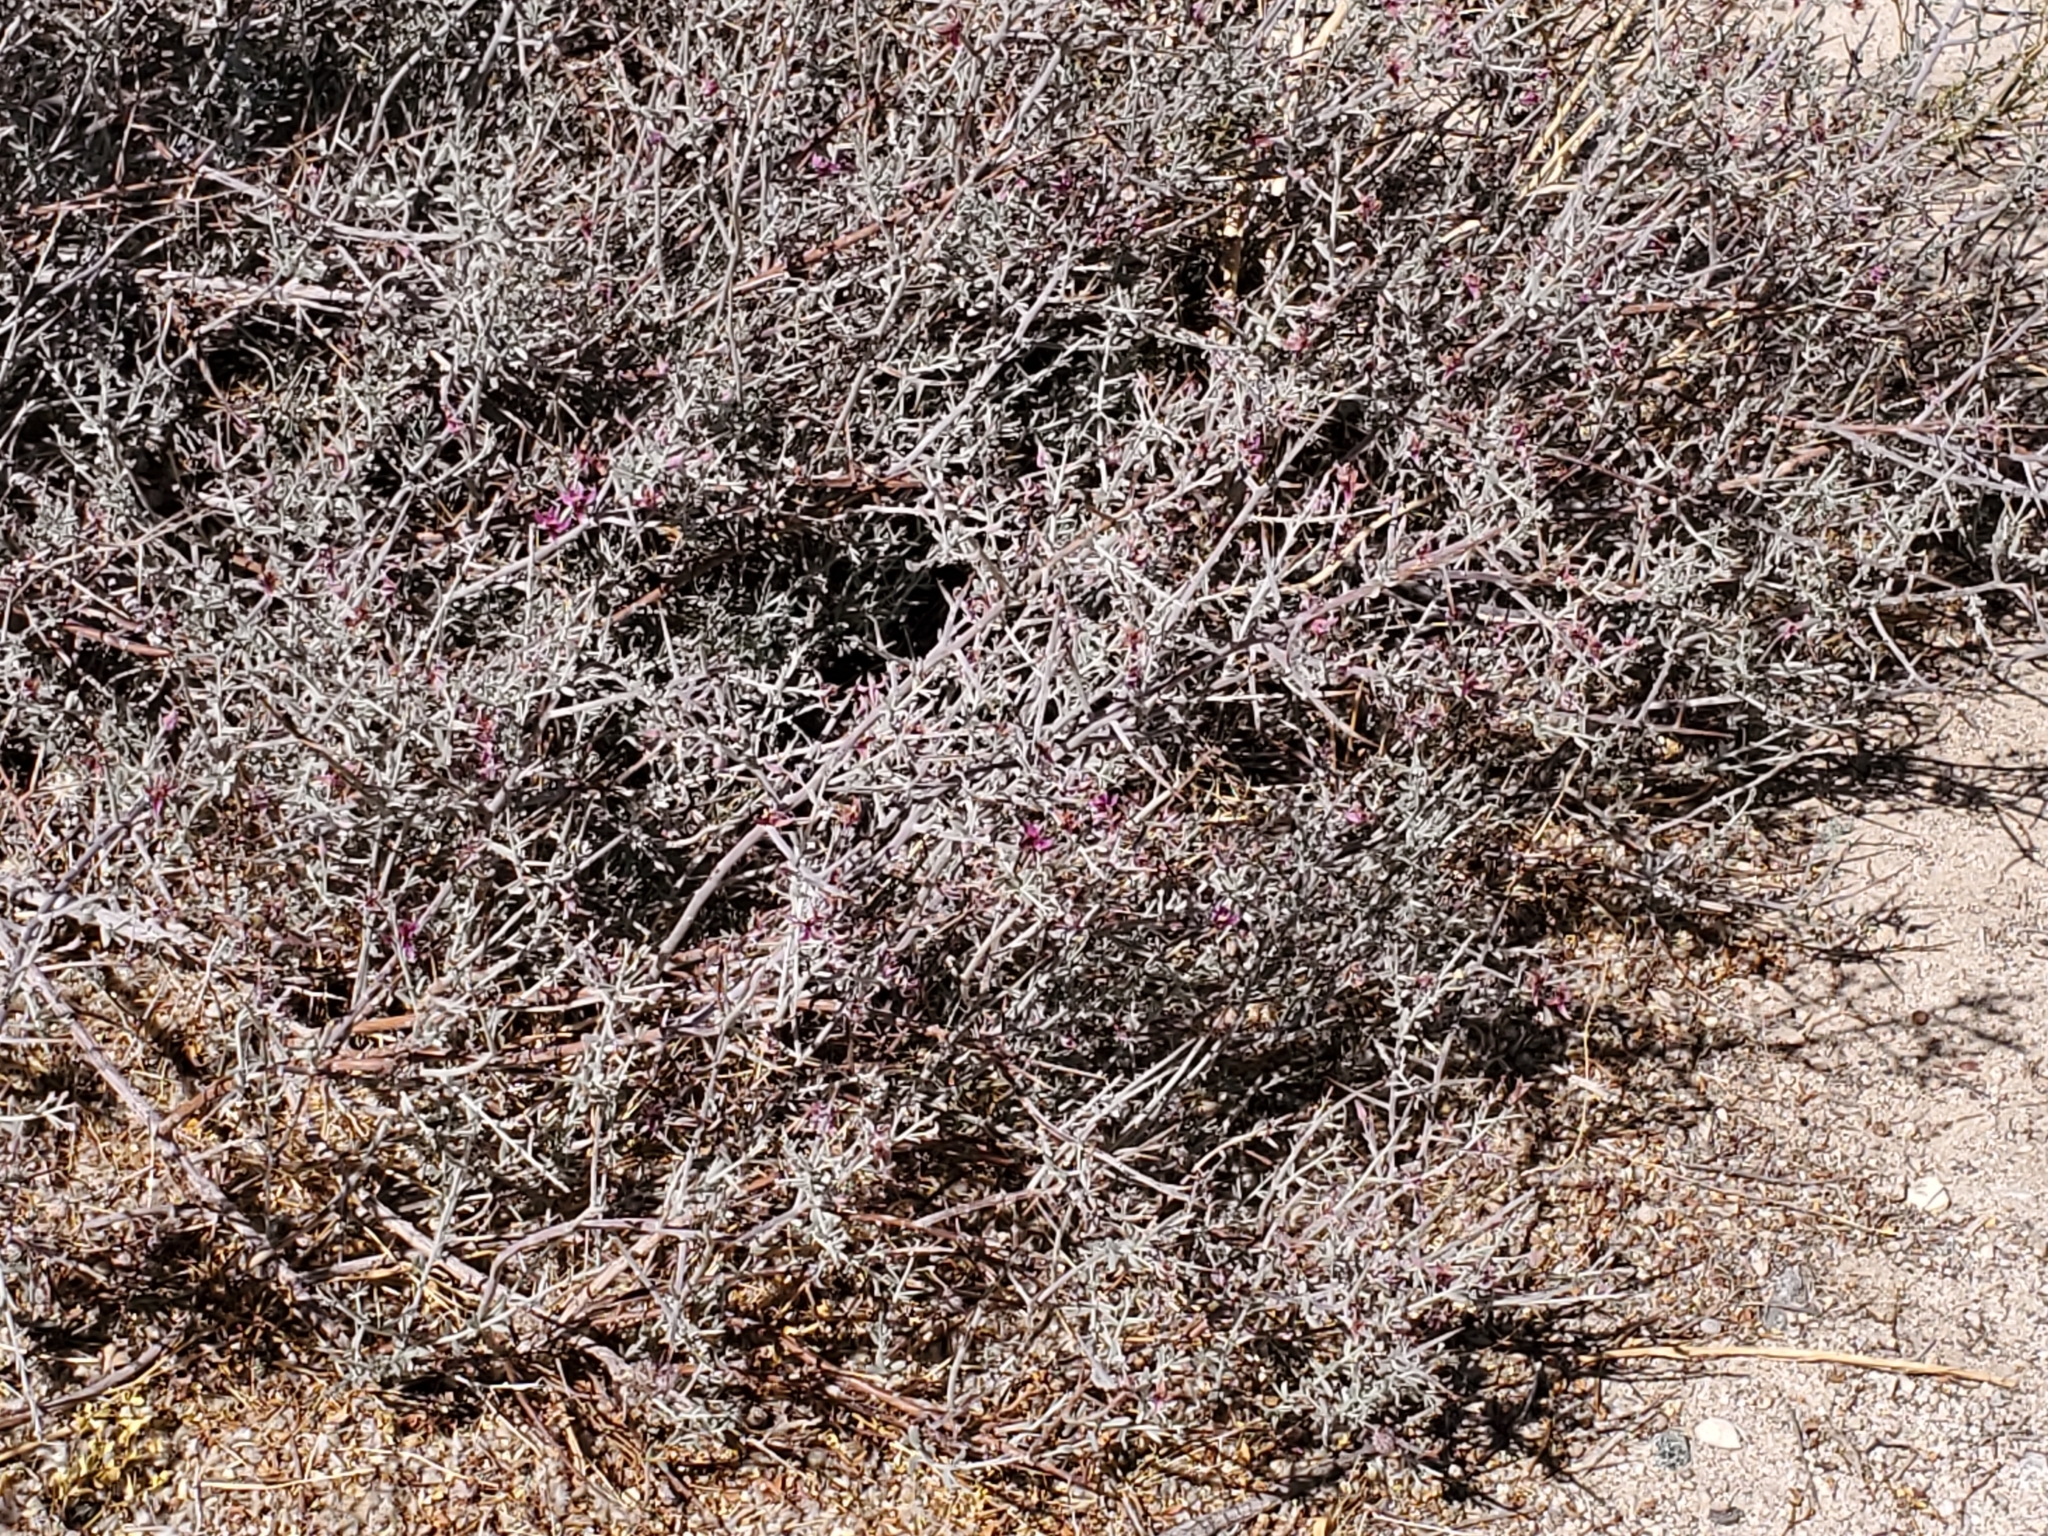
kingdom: Plantae
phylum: Tracheophyta
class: Magnoliopsida
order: Zygophyllales
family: Krameriaceae
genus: Krameria
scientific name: Krameria bicolor
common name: White ratany
